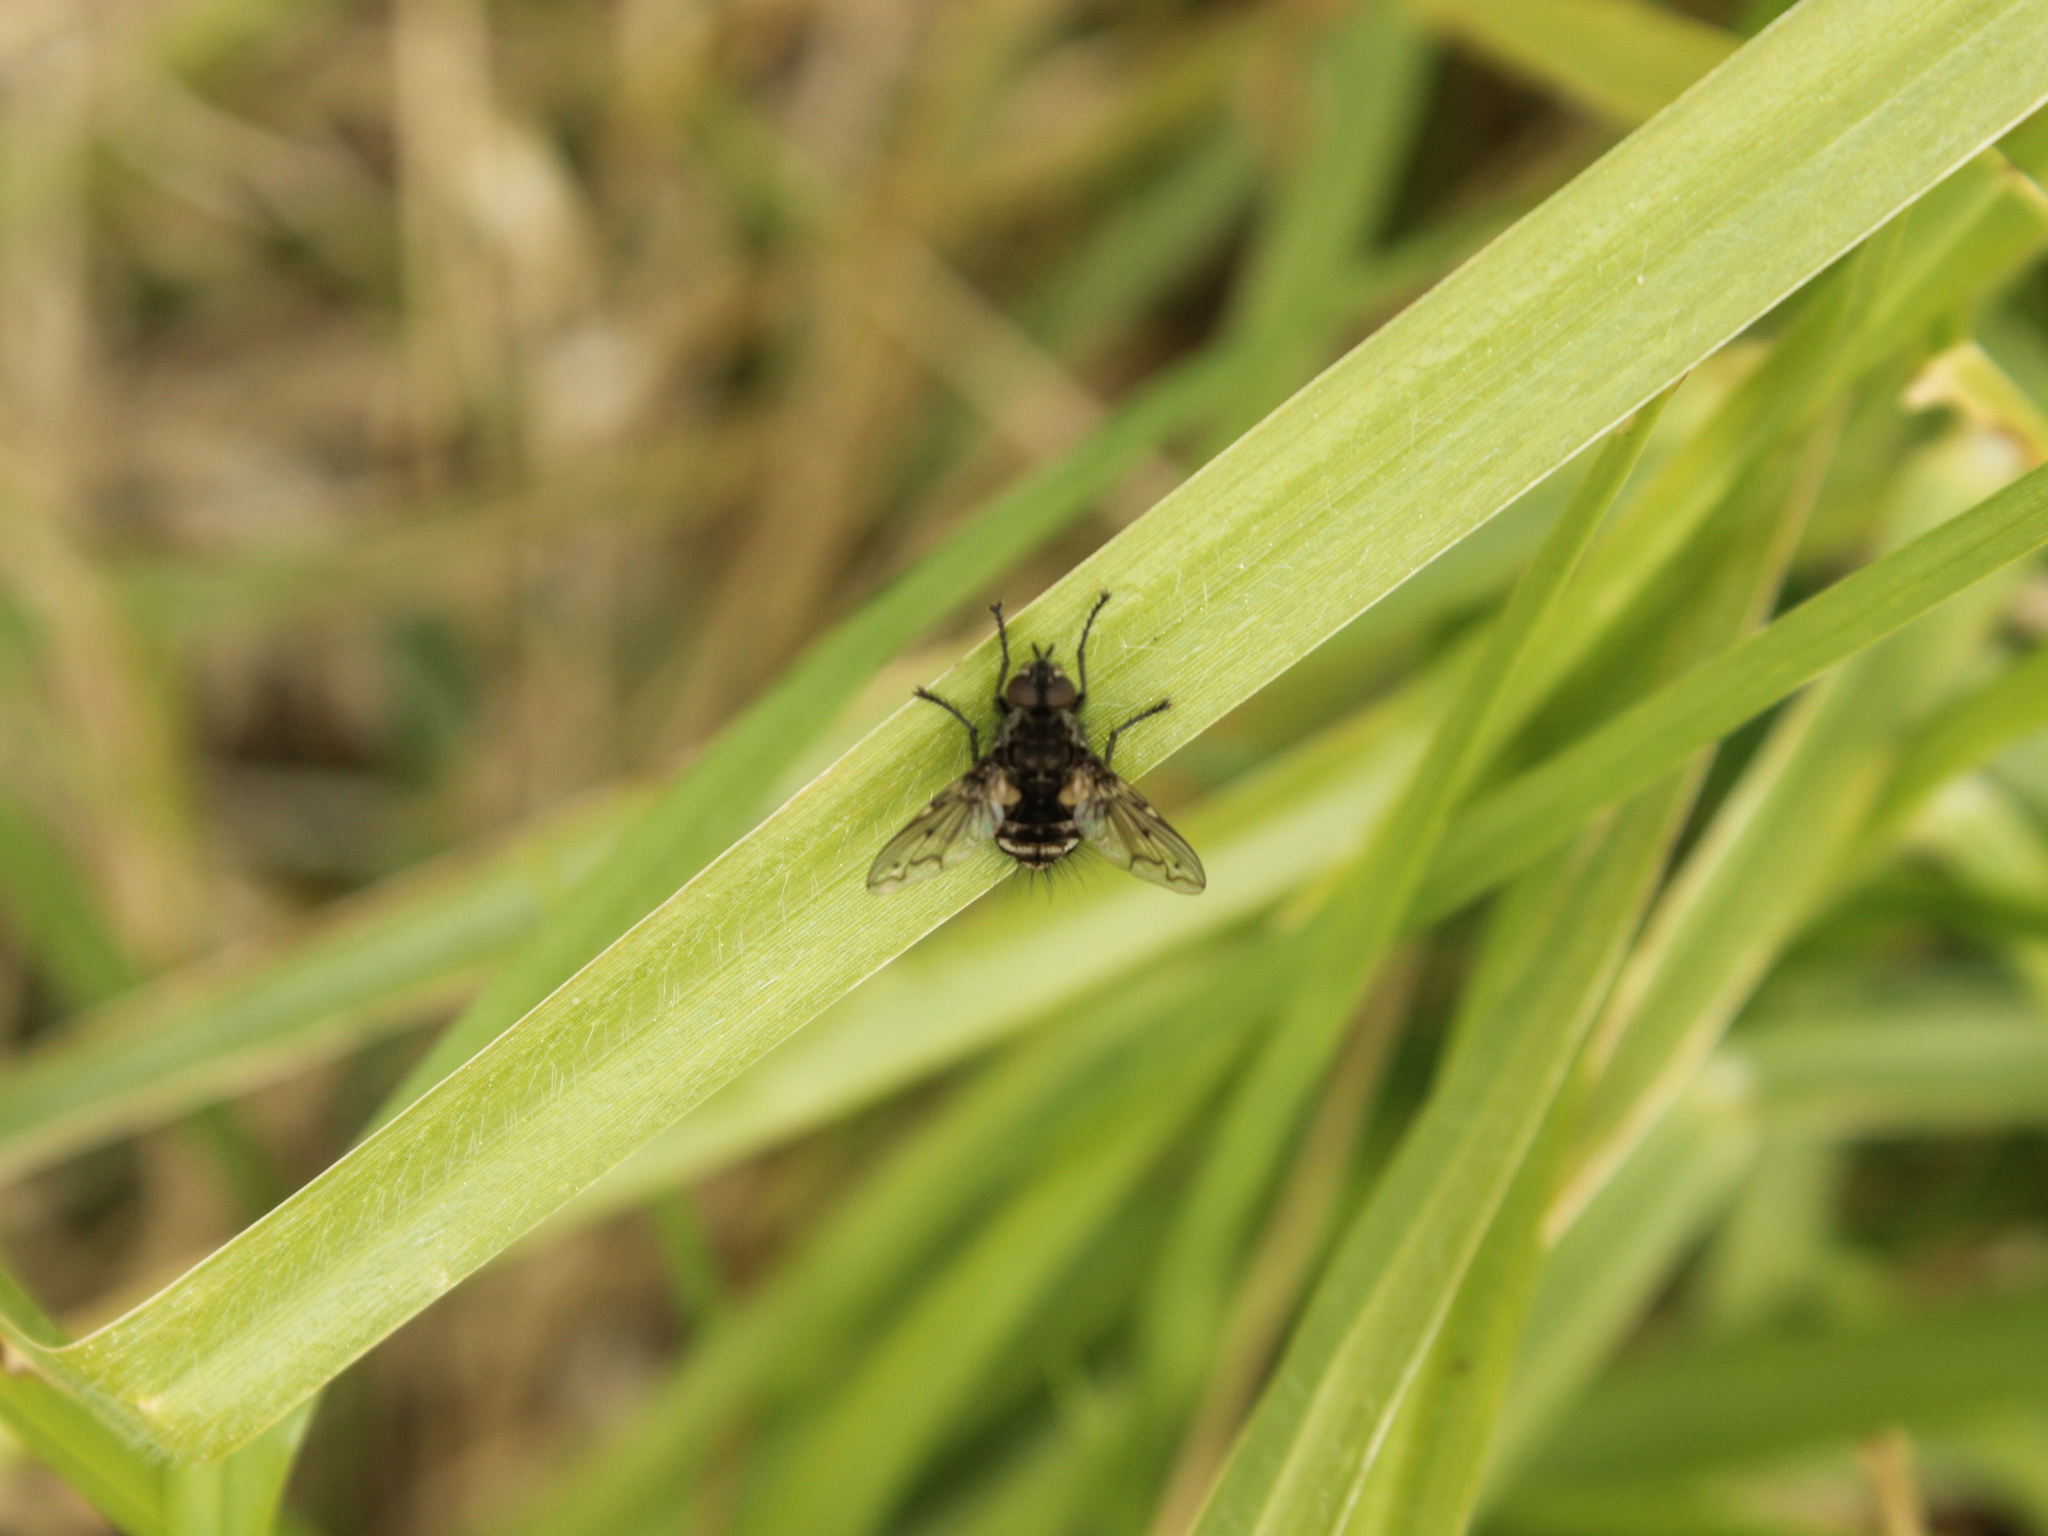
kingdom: Animalia
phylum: Arthropoda
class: Insecta
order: Diptera
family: Tachinidae
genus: Mallochomacquartia
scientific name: Mallochomacquartia vexata
